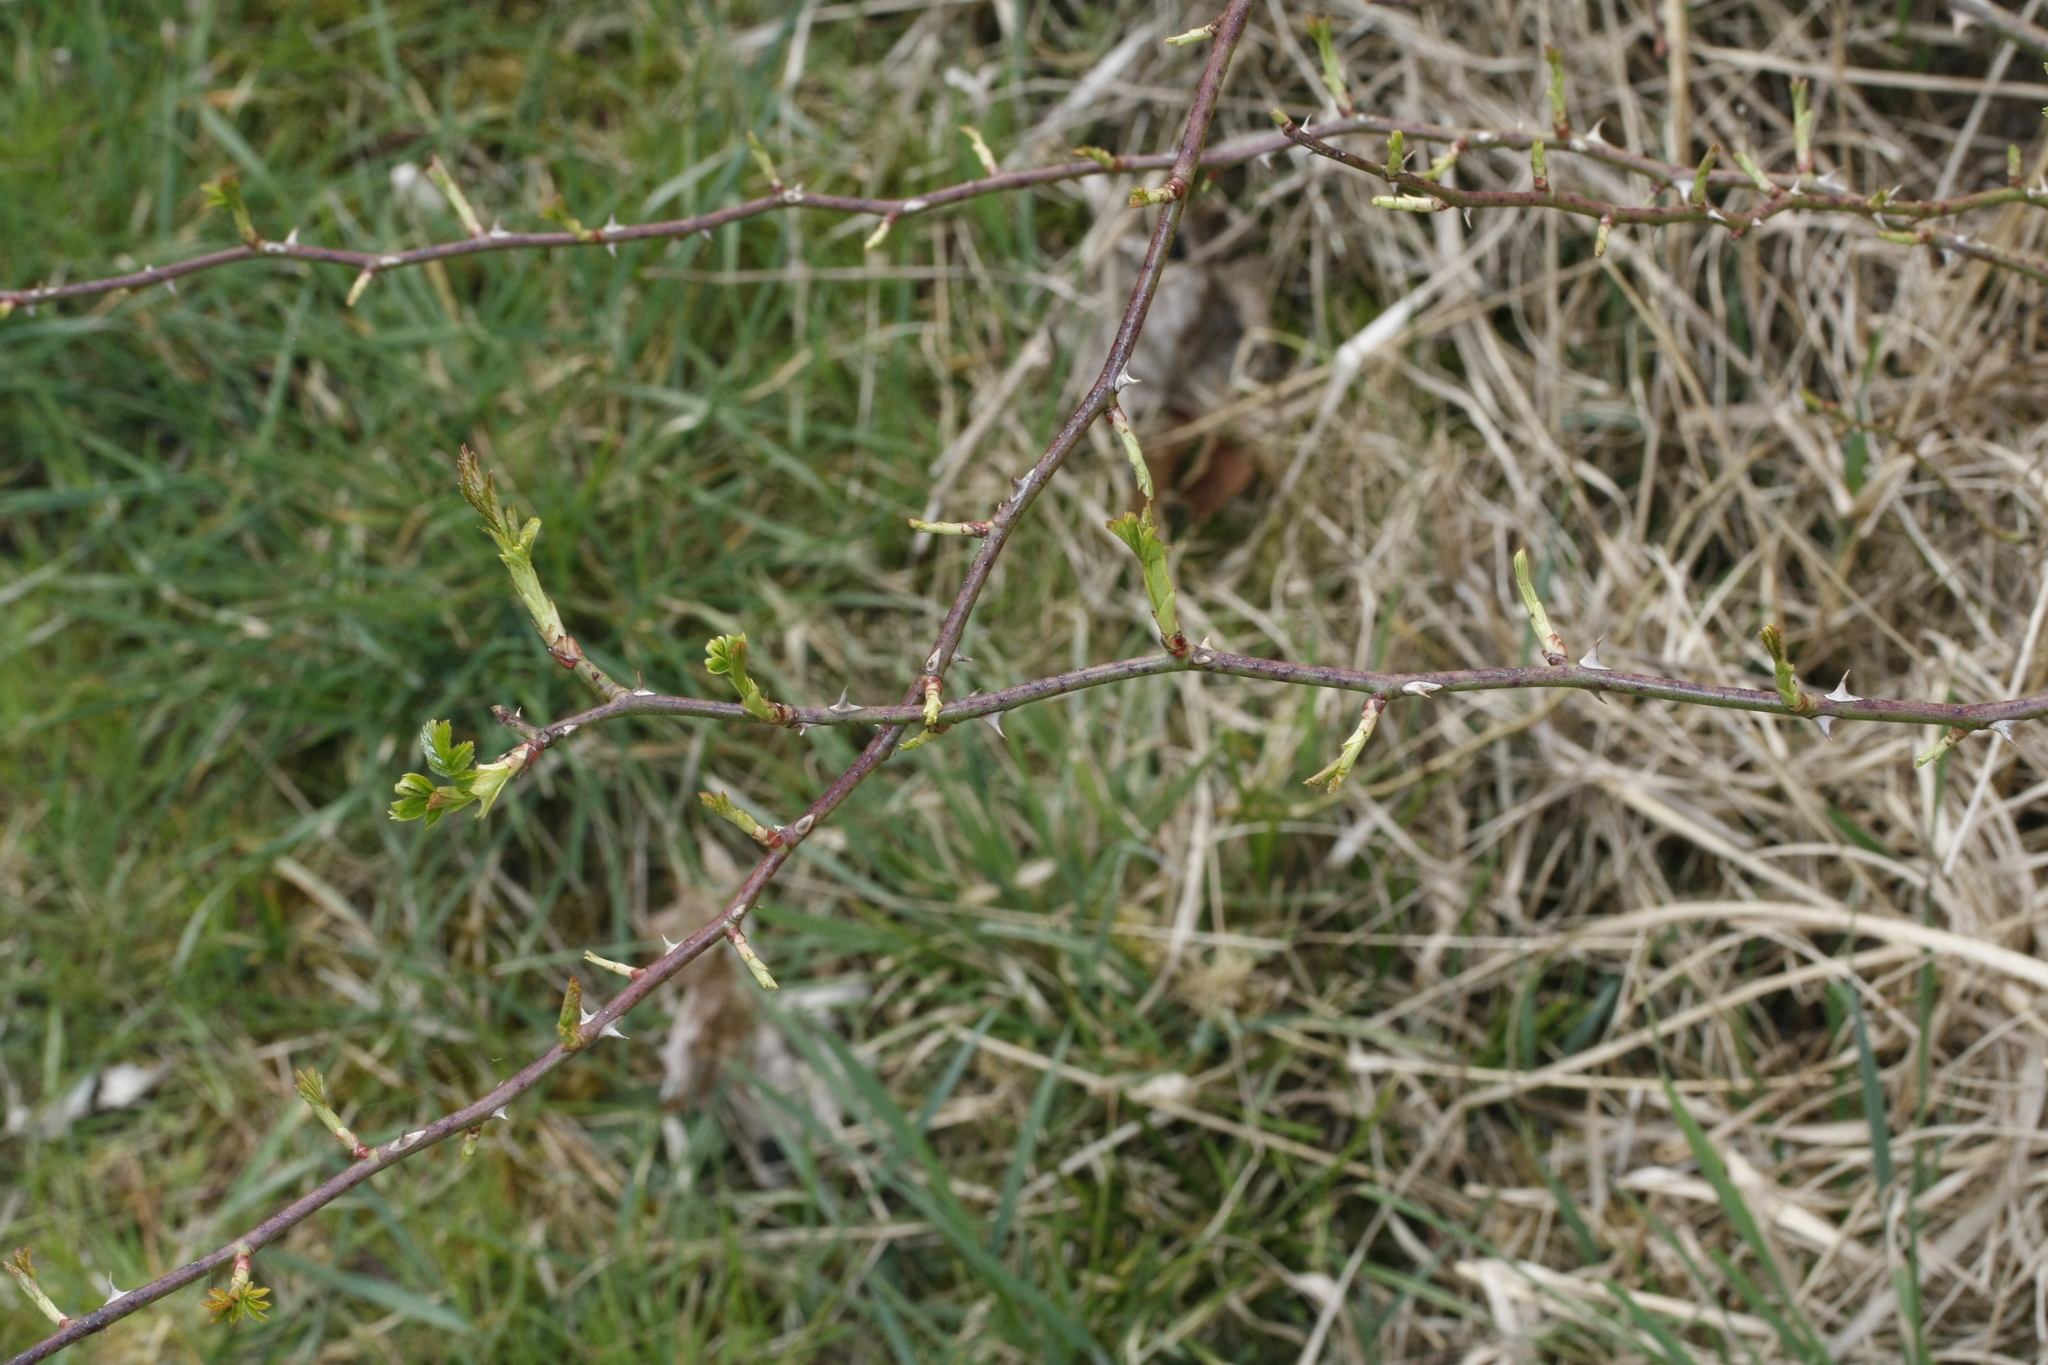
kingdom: Animalia
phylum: Arthropoda
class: Insecta
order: Hymenoptera
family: Cynipidae
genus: Diplolepis
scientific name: Diplolepis rosae
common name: Bedeguar gall
